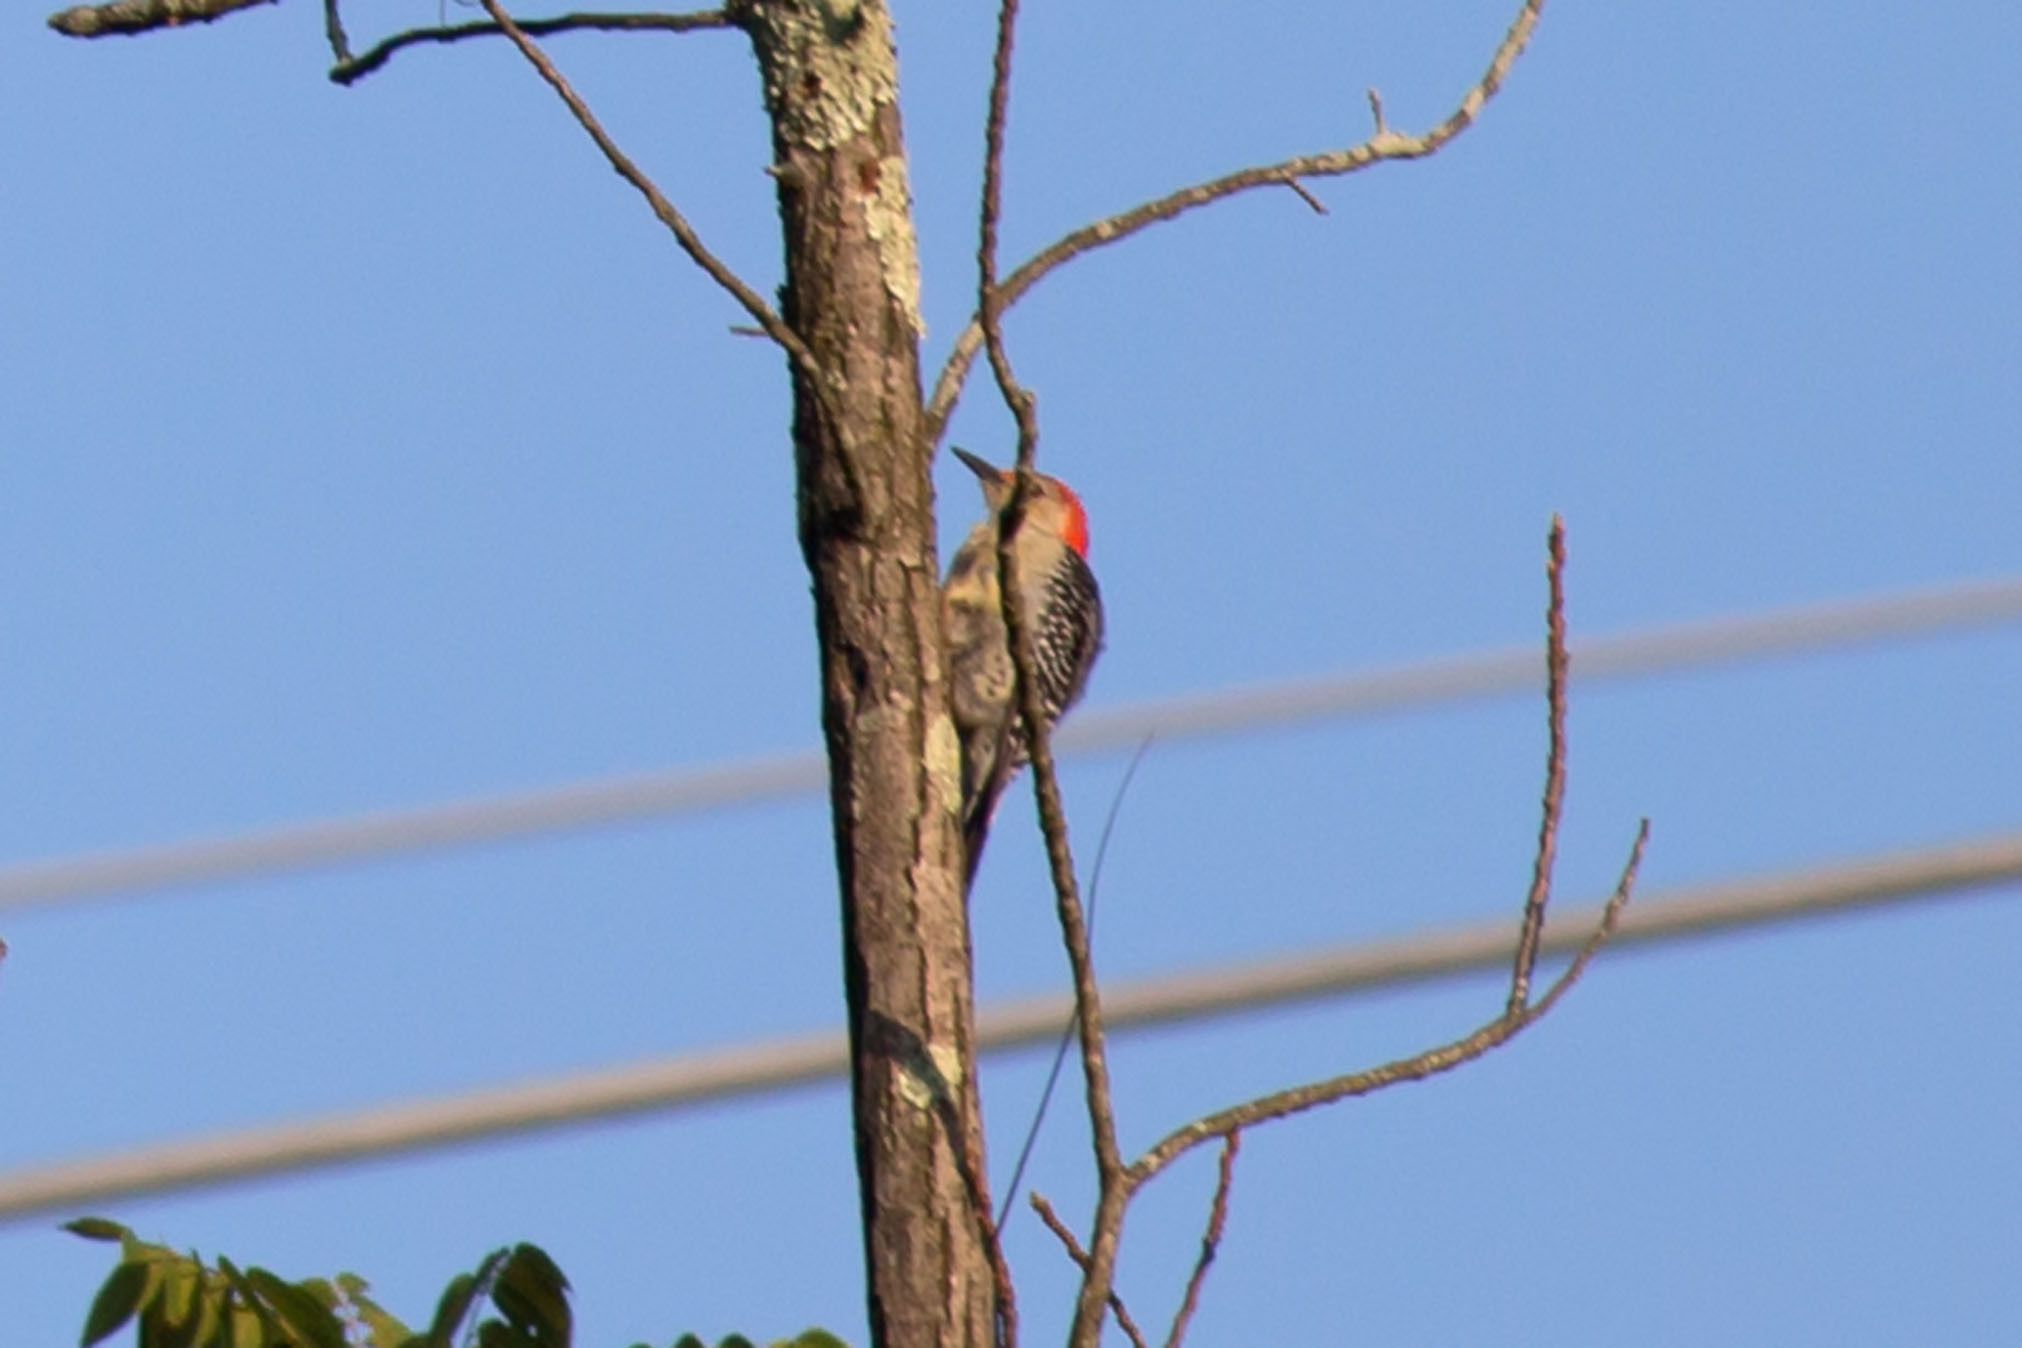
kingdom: Animalia
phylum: Chordata
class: Aves
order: Piciformes
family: Picidae
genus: Melanerpes
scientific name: Melanerpes carolinus
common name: Red-bellied woodpecker
